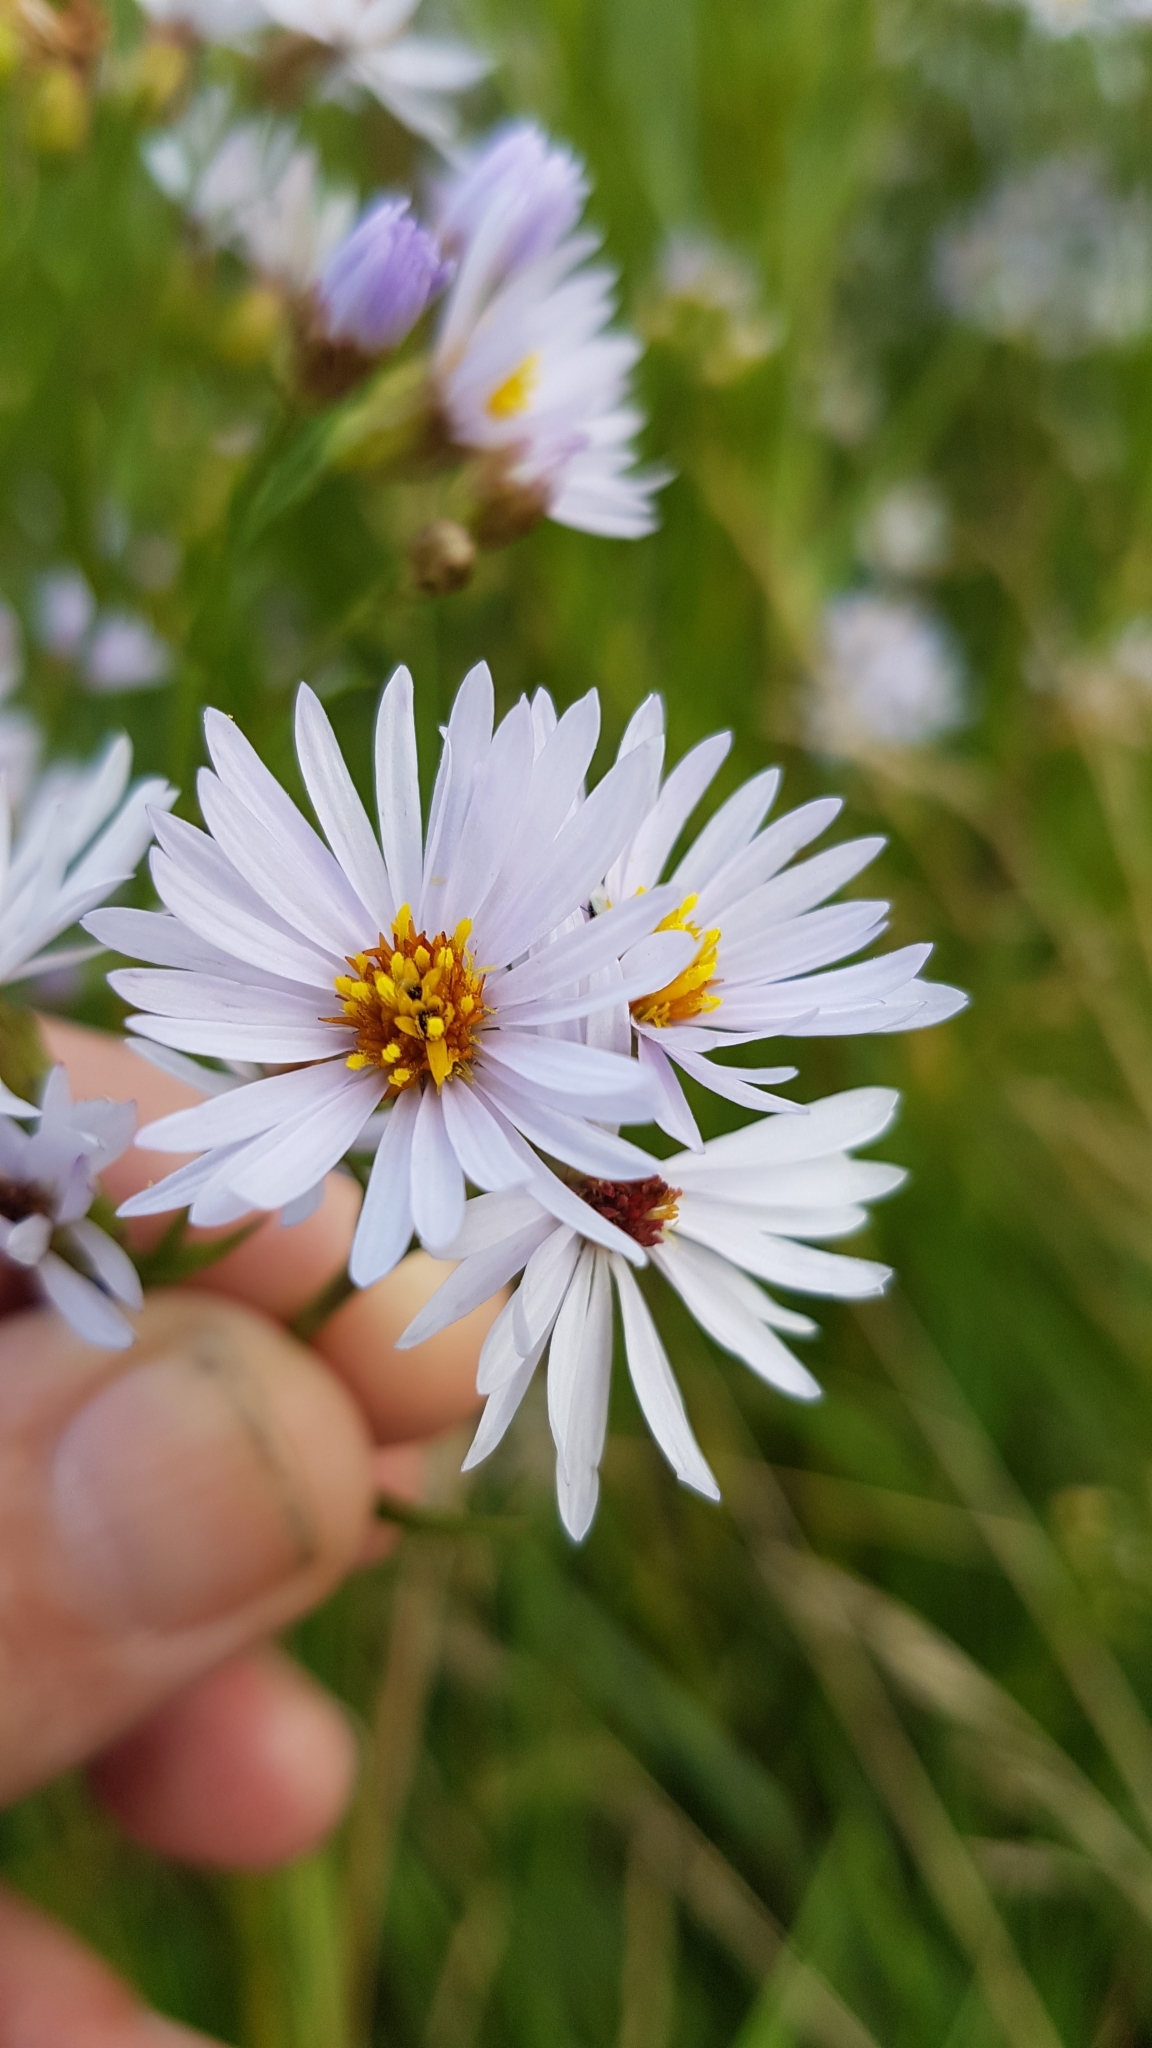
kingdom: Plantae
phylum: Tracheophyta
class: Magnoliopsida
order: Asterales
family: Asteraceae
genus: Tripolium
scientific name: Tripolium pannonicum
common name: Sea aster
